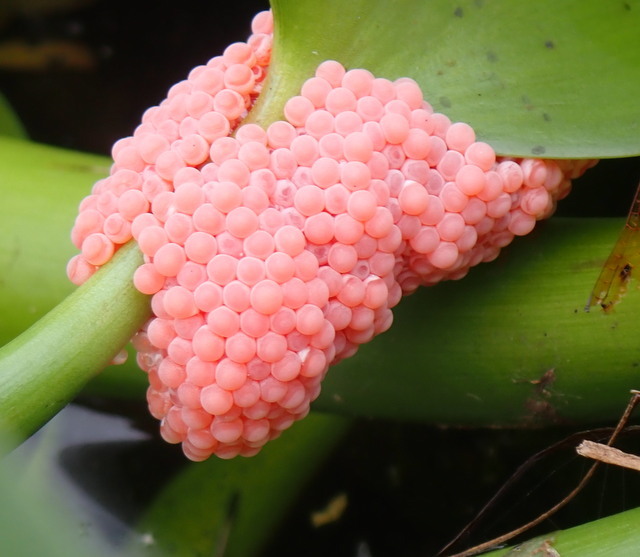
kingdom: Animalia
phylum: Mollusca
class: Gastropoda
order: Architaenioglossa
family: Ampullariidae
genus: Pomacea
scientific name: Pomacea maculata
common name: Giant applesnail
